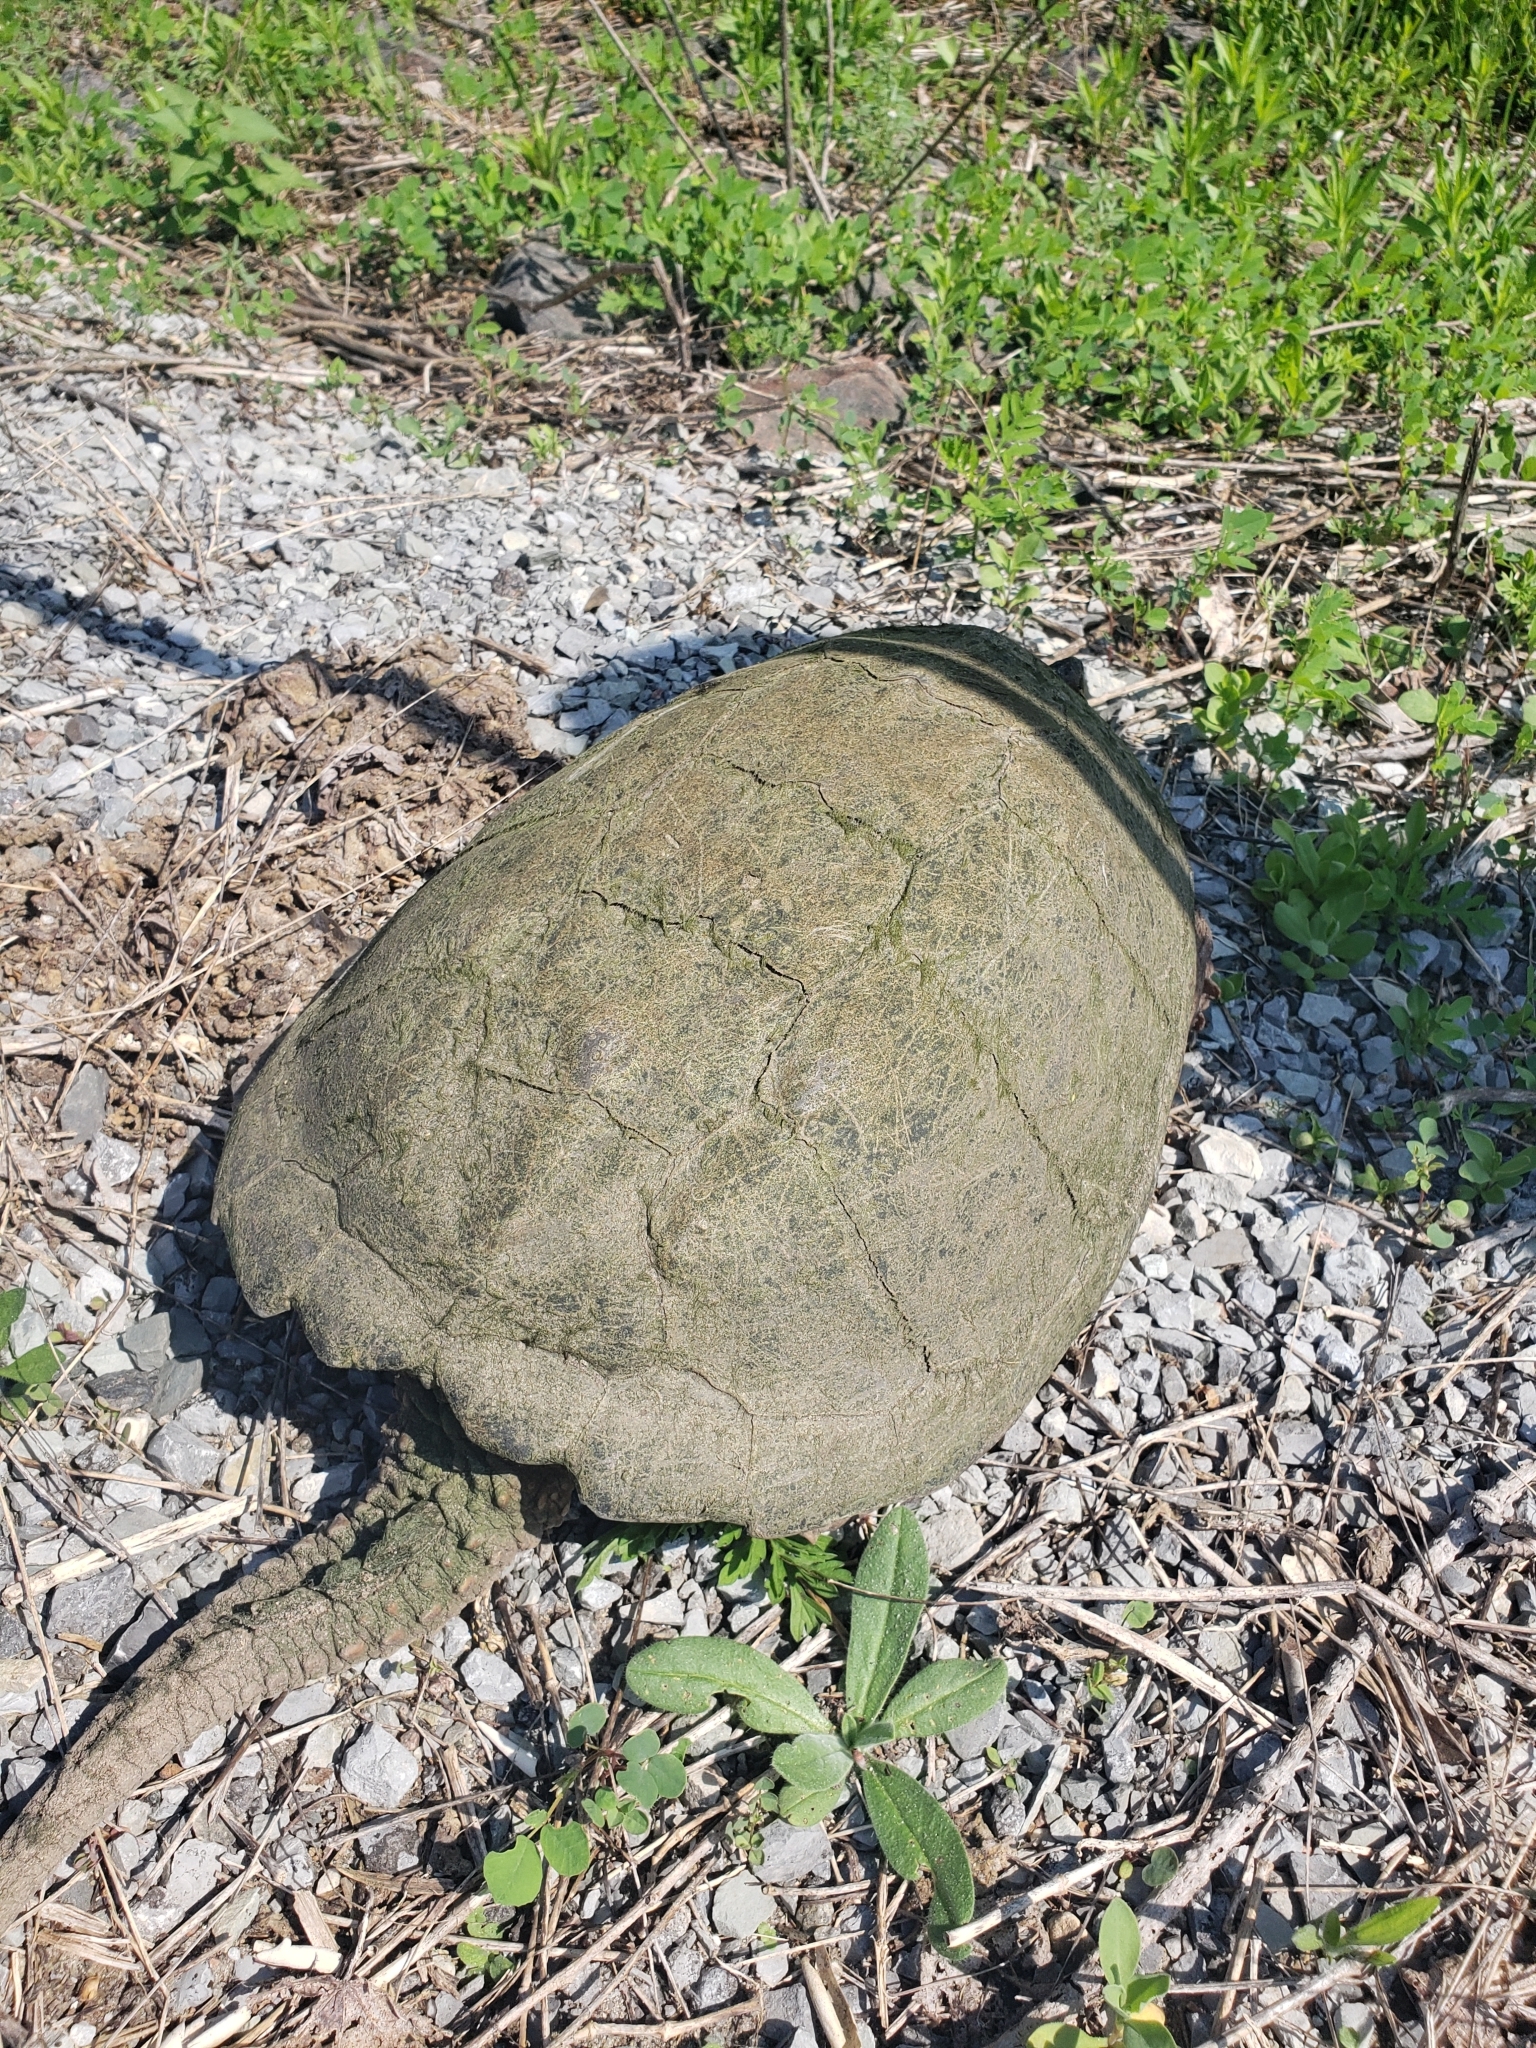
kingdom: Animalia
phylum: Chordata
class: Testudines
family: Chelydridae
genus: Chelydra
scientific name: Chelydra serpentina
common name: Common snapping turtle
